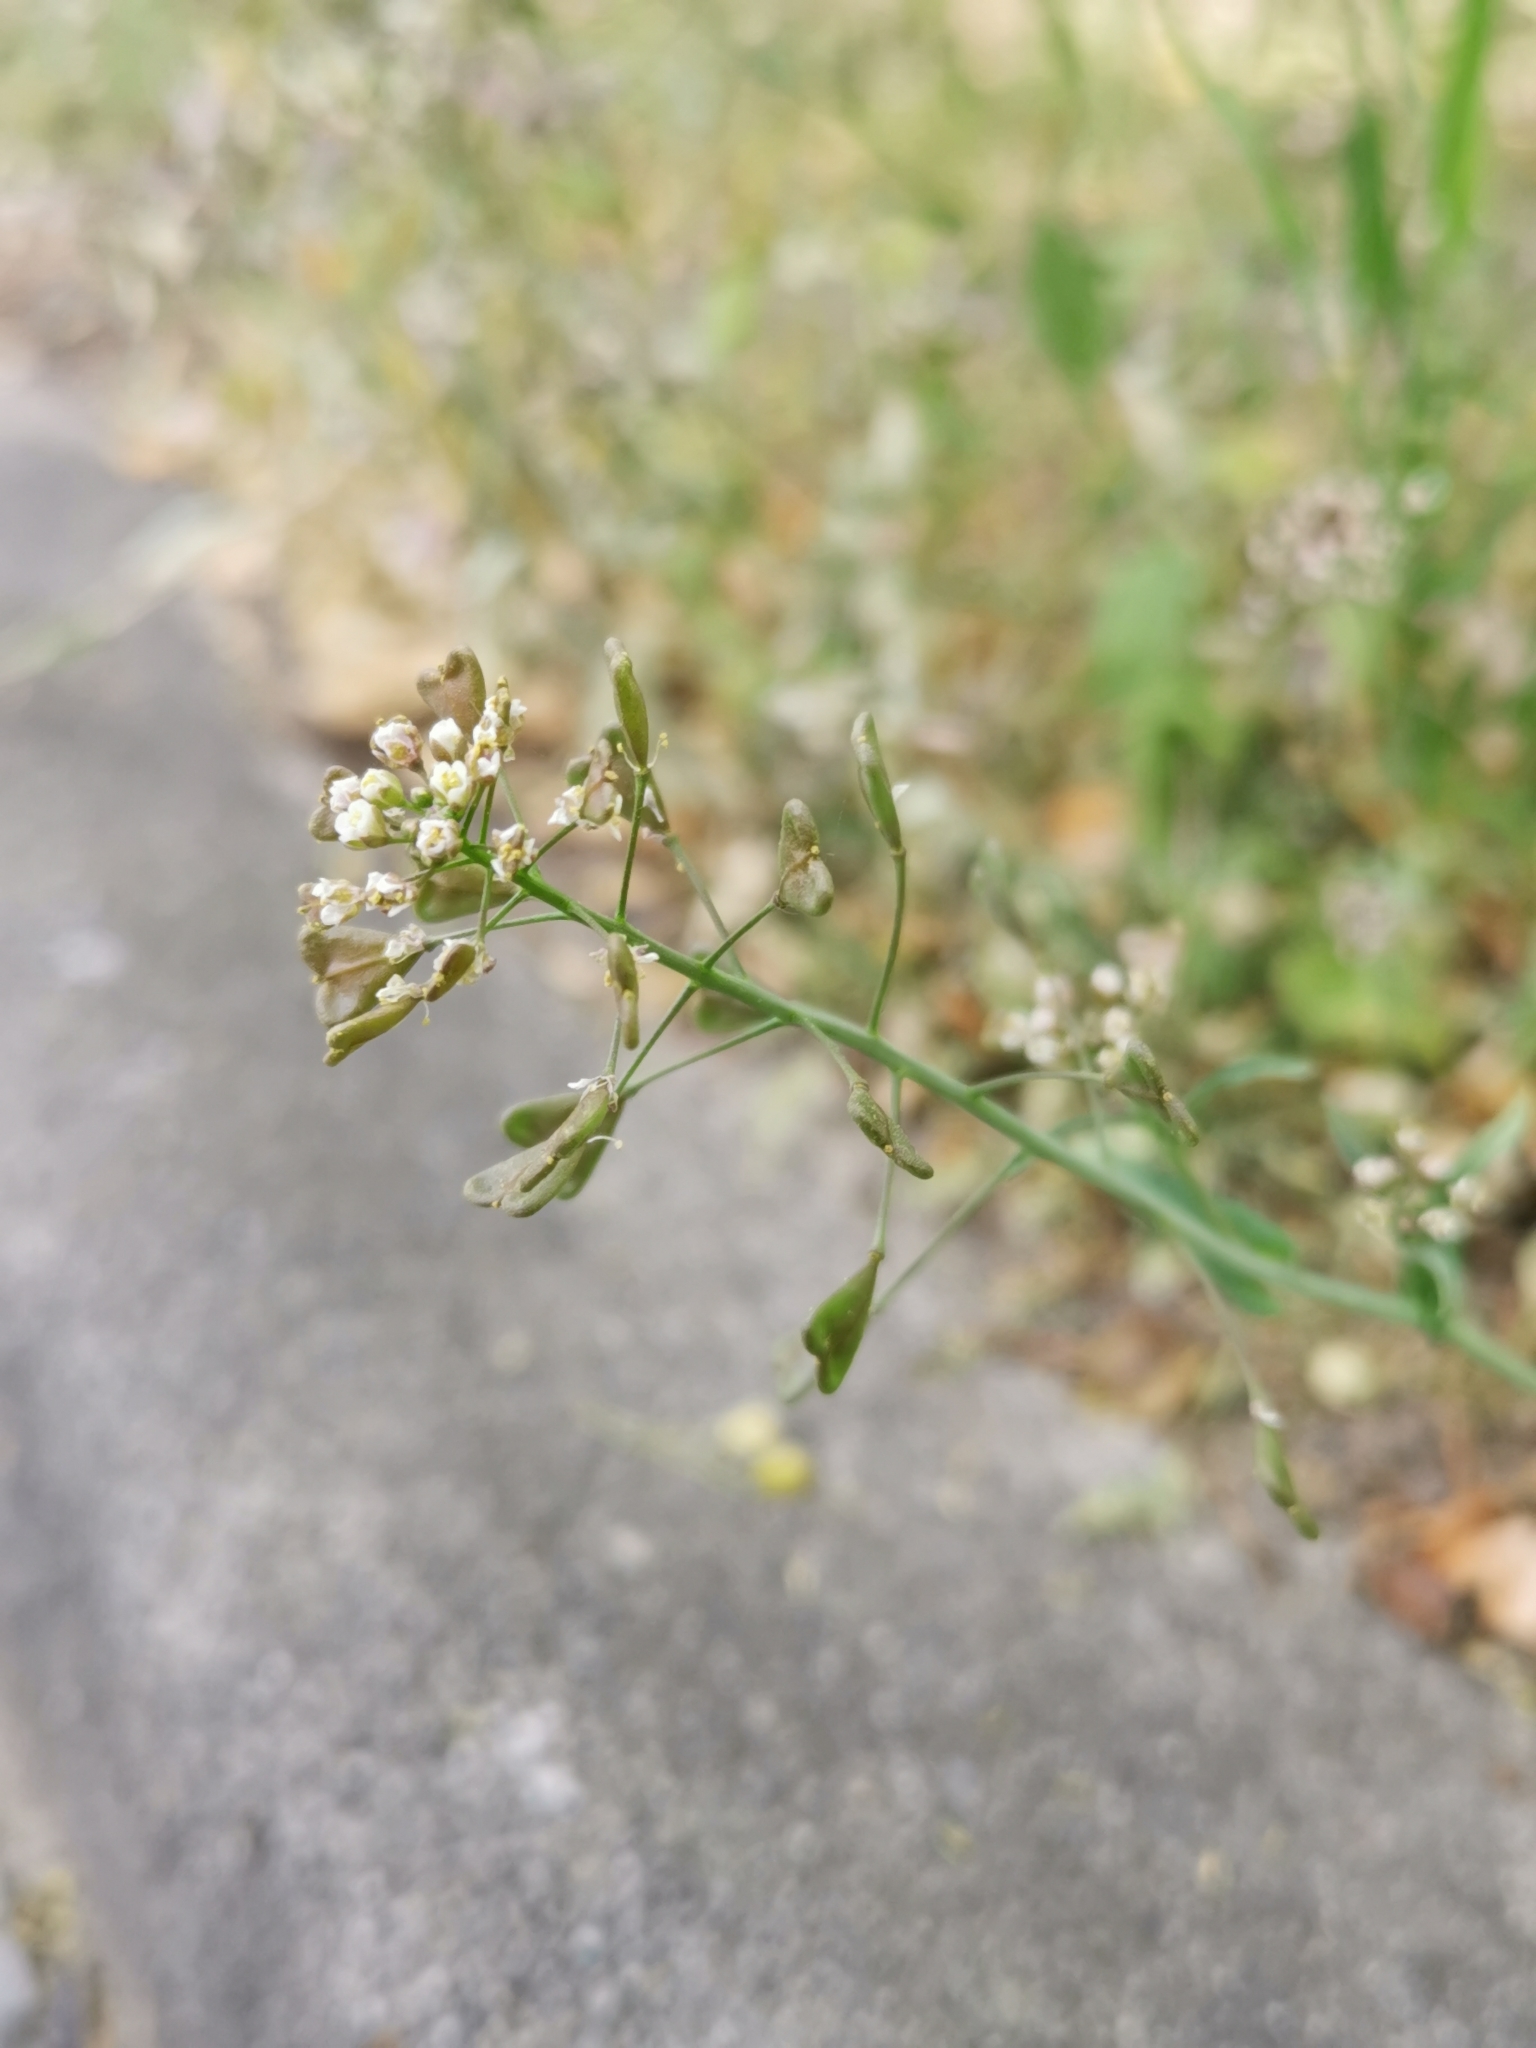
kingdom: Plantae
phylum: Tracheophyta
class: Magnoliopsida
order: Brassicales
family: Brassicaceae
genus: Capsella
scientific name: Capsella bursa-pastoris
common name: Shepherd's purse
